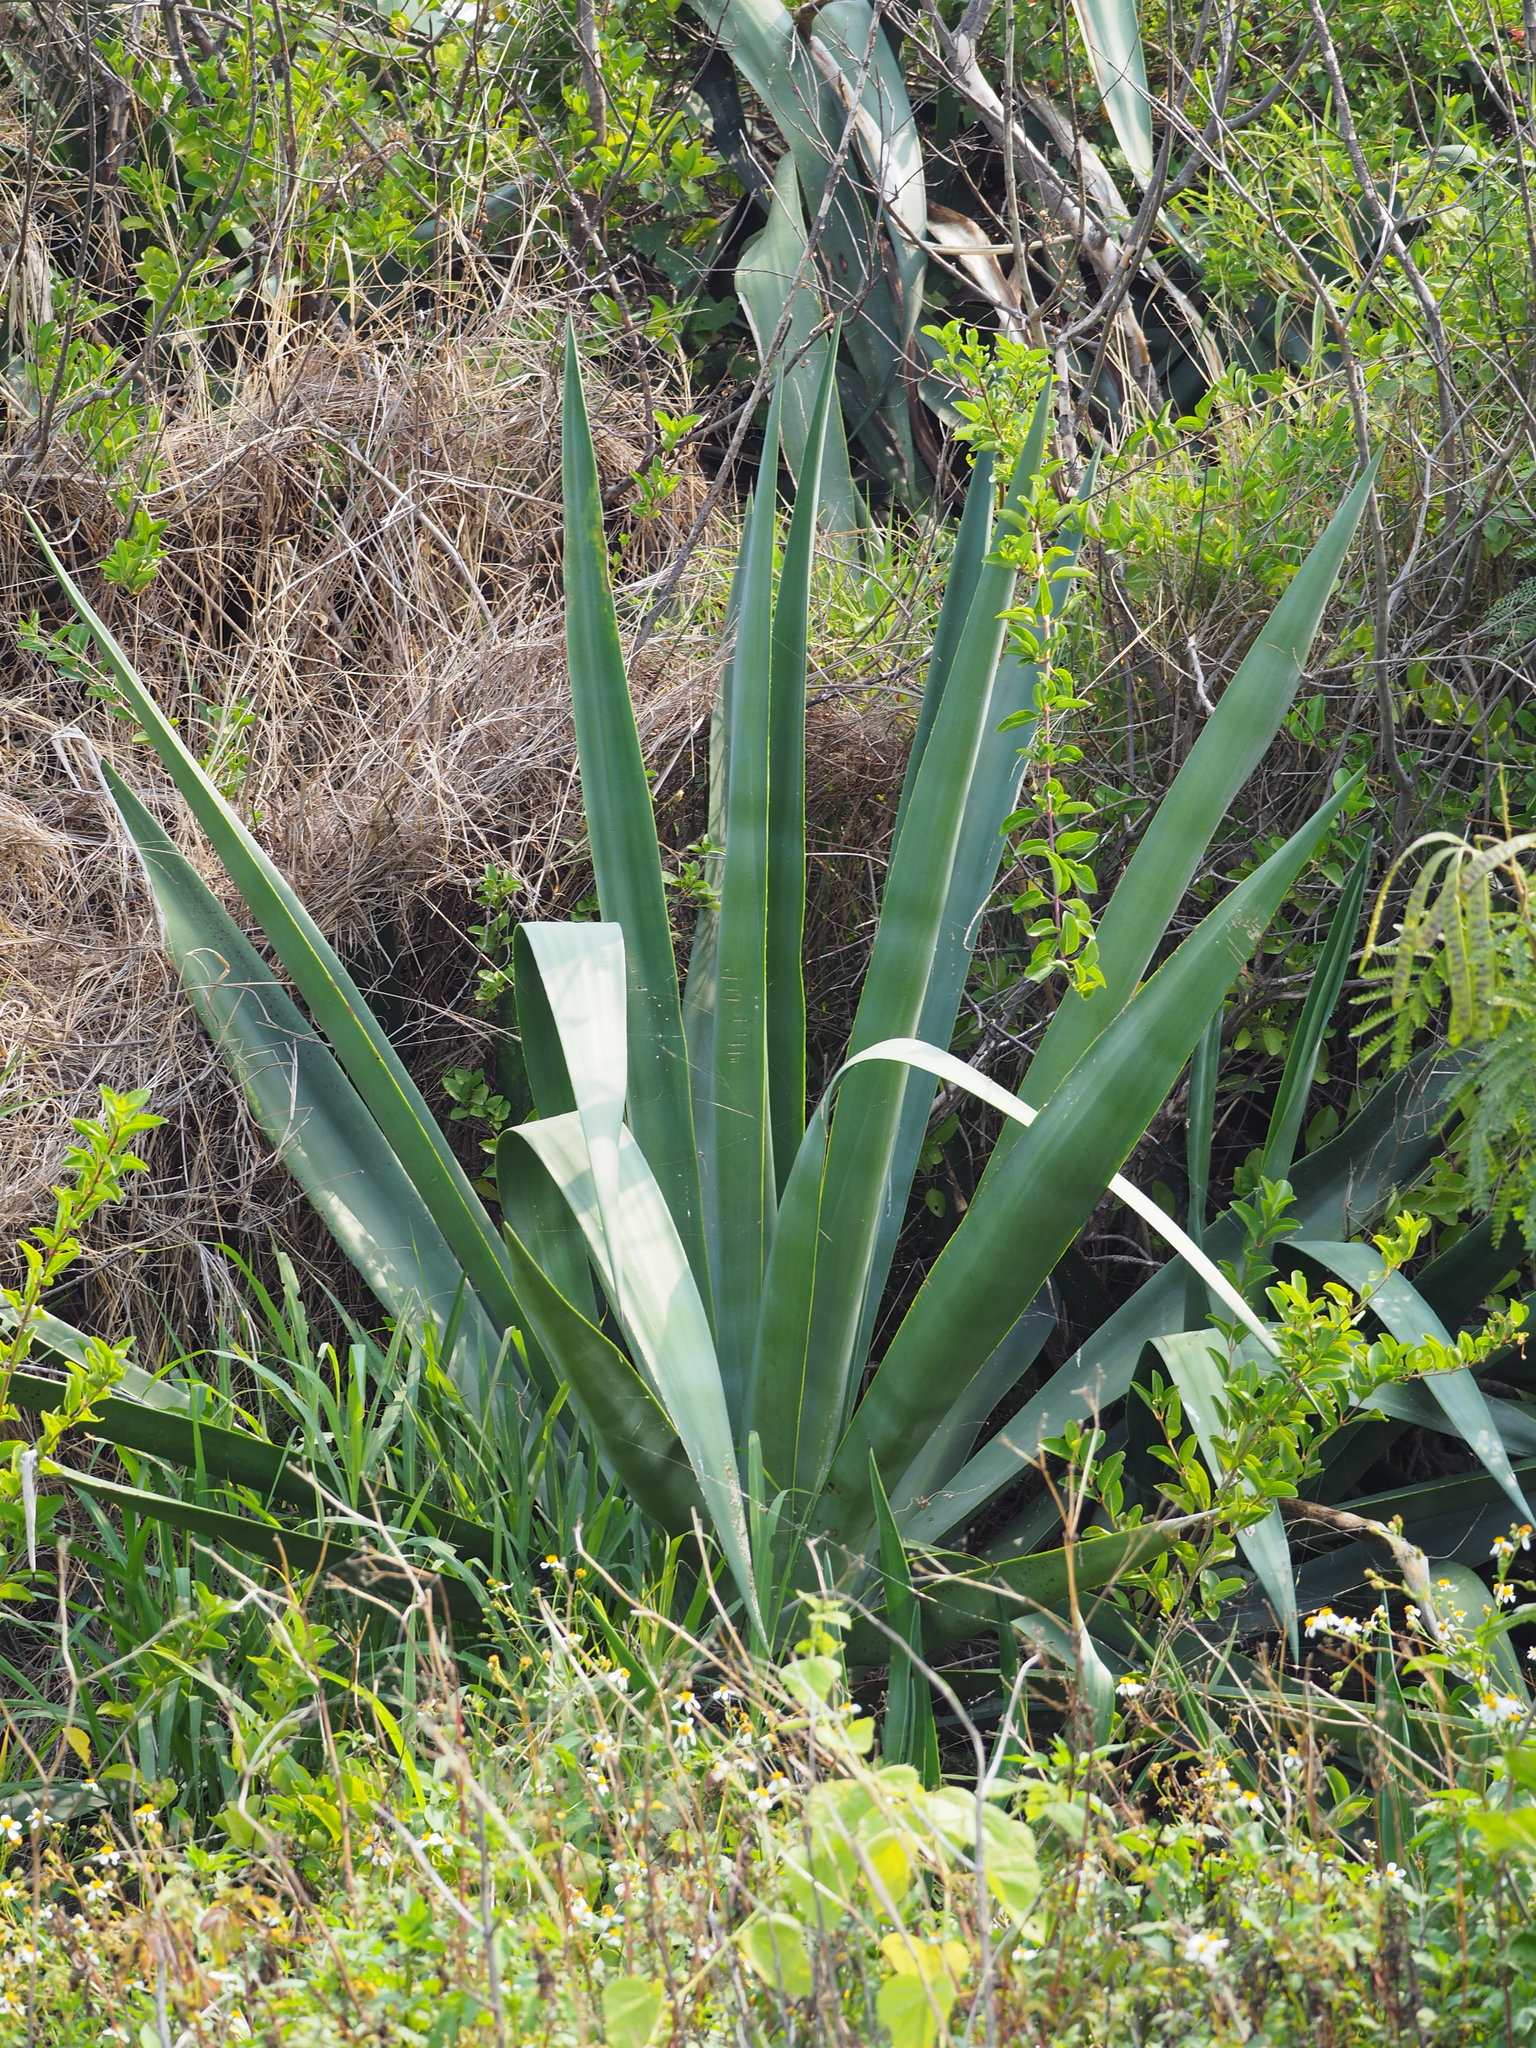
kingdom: Plantae
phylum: Tracheophyta
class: Liliopsida
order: Asparagales
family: Asparagaceae
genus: Agave
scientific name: Agave sisalana
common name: Sisal hemp
